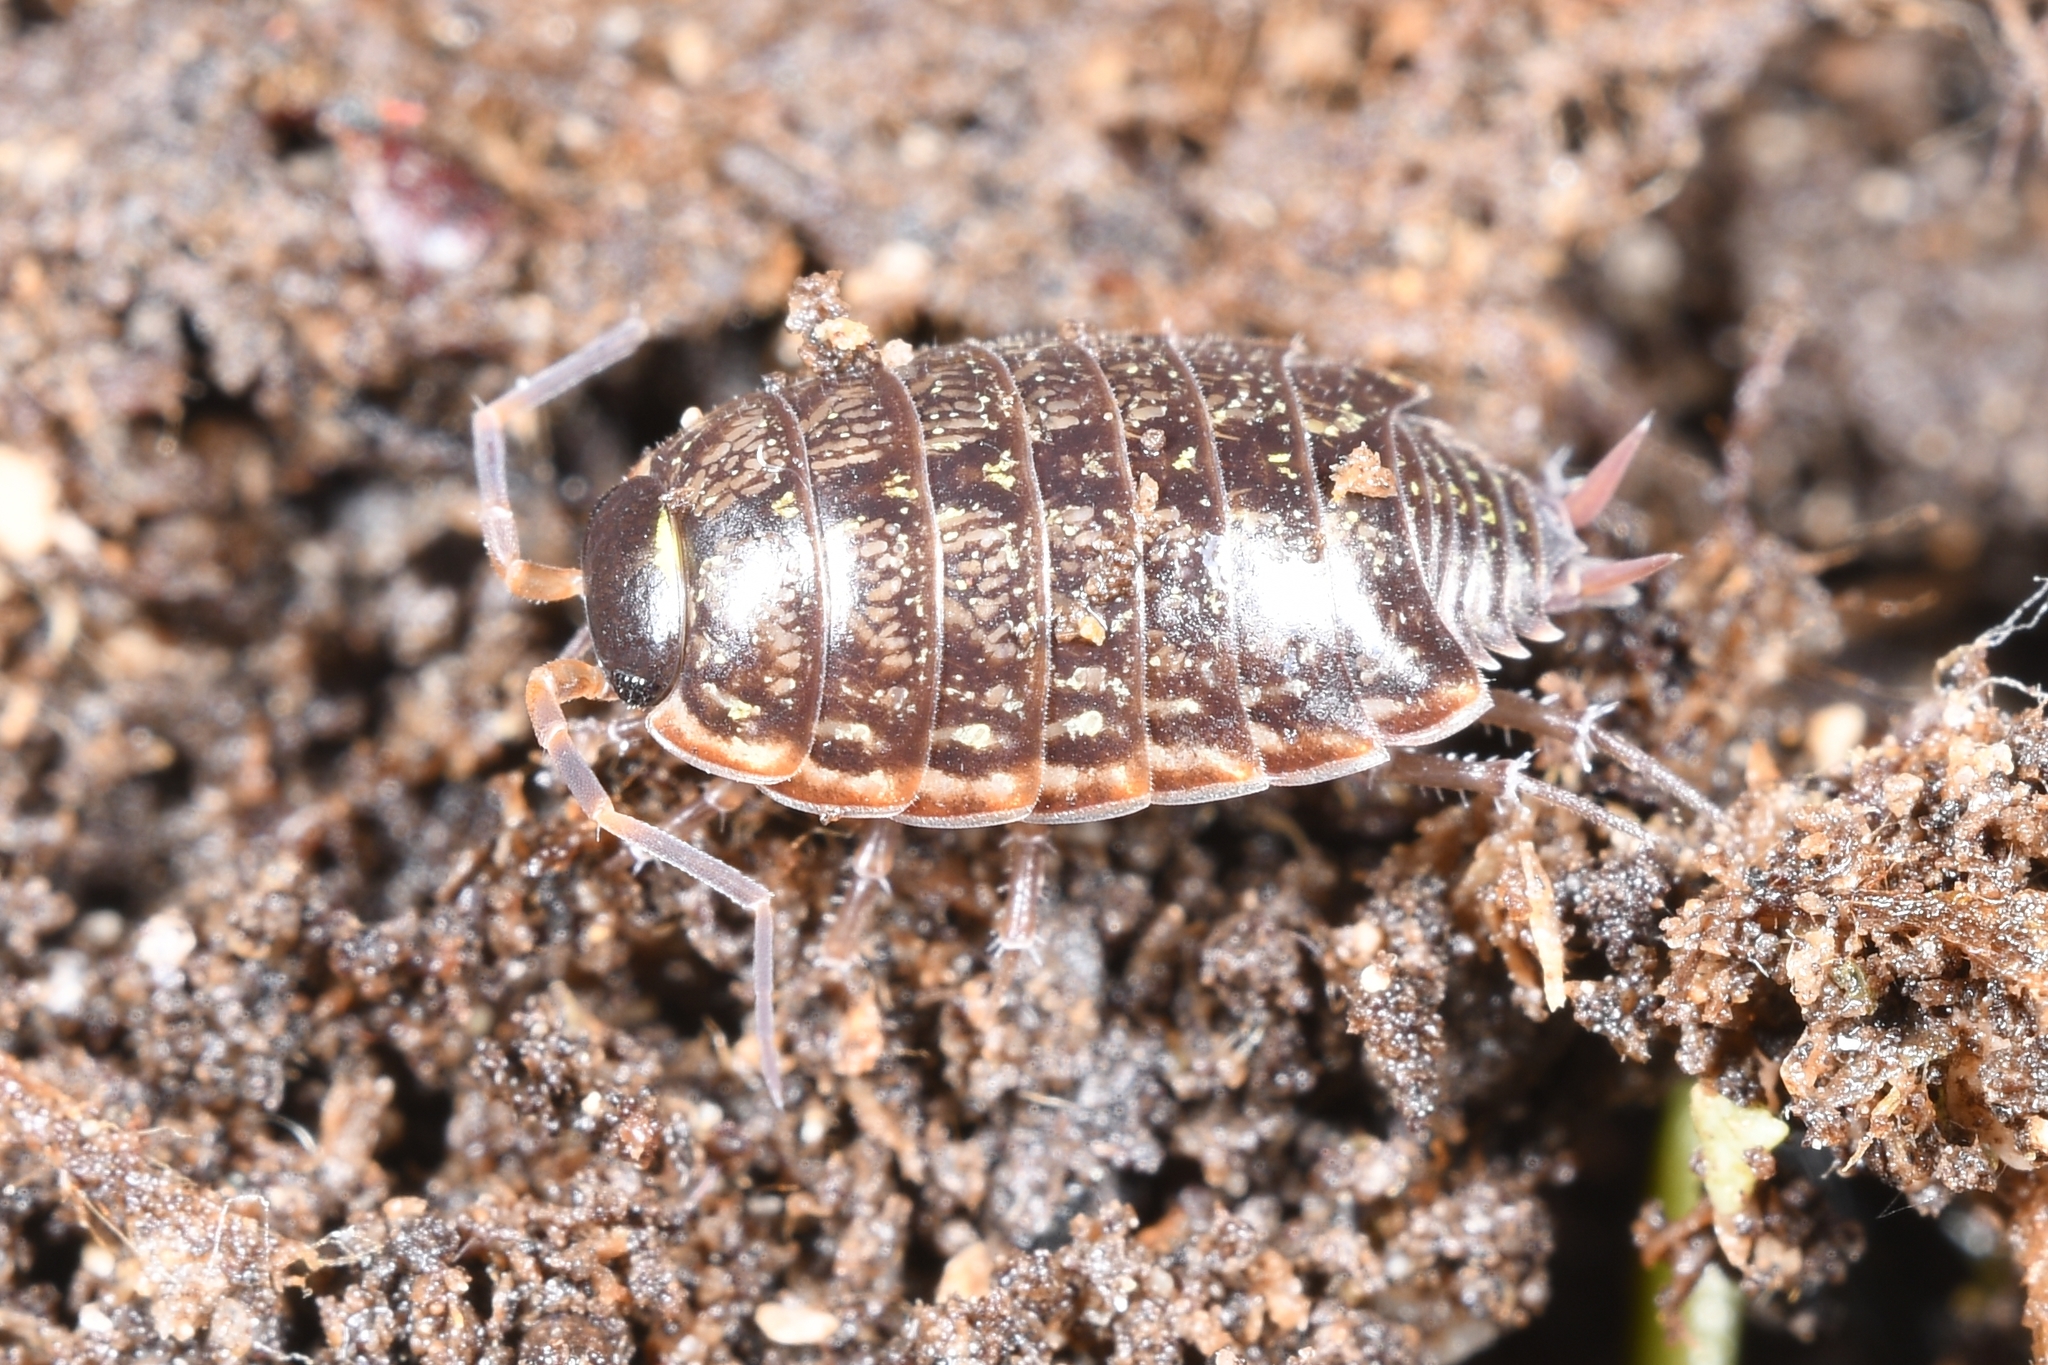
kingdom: Animalia
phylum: Arthropoda
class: Malacostraca
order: Isopoda
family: Philosciidae
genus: Philoscia
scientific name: Philoscia muscorum
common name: Common striped woodlouse
